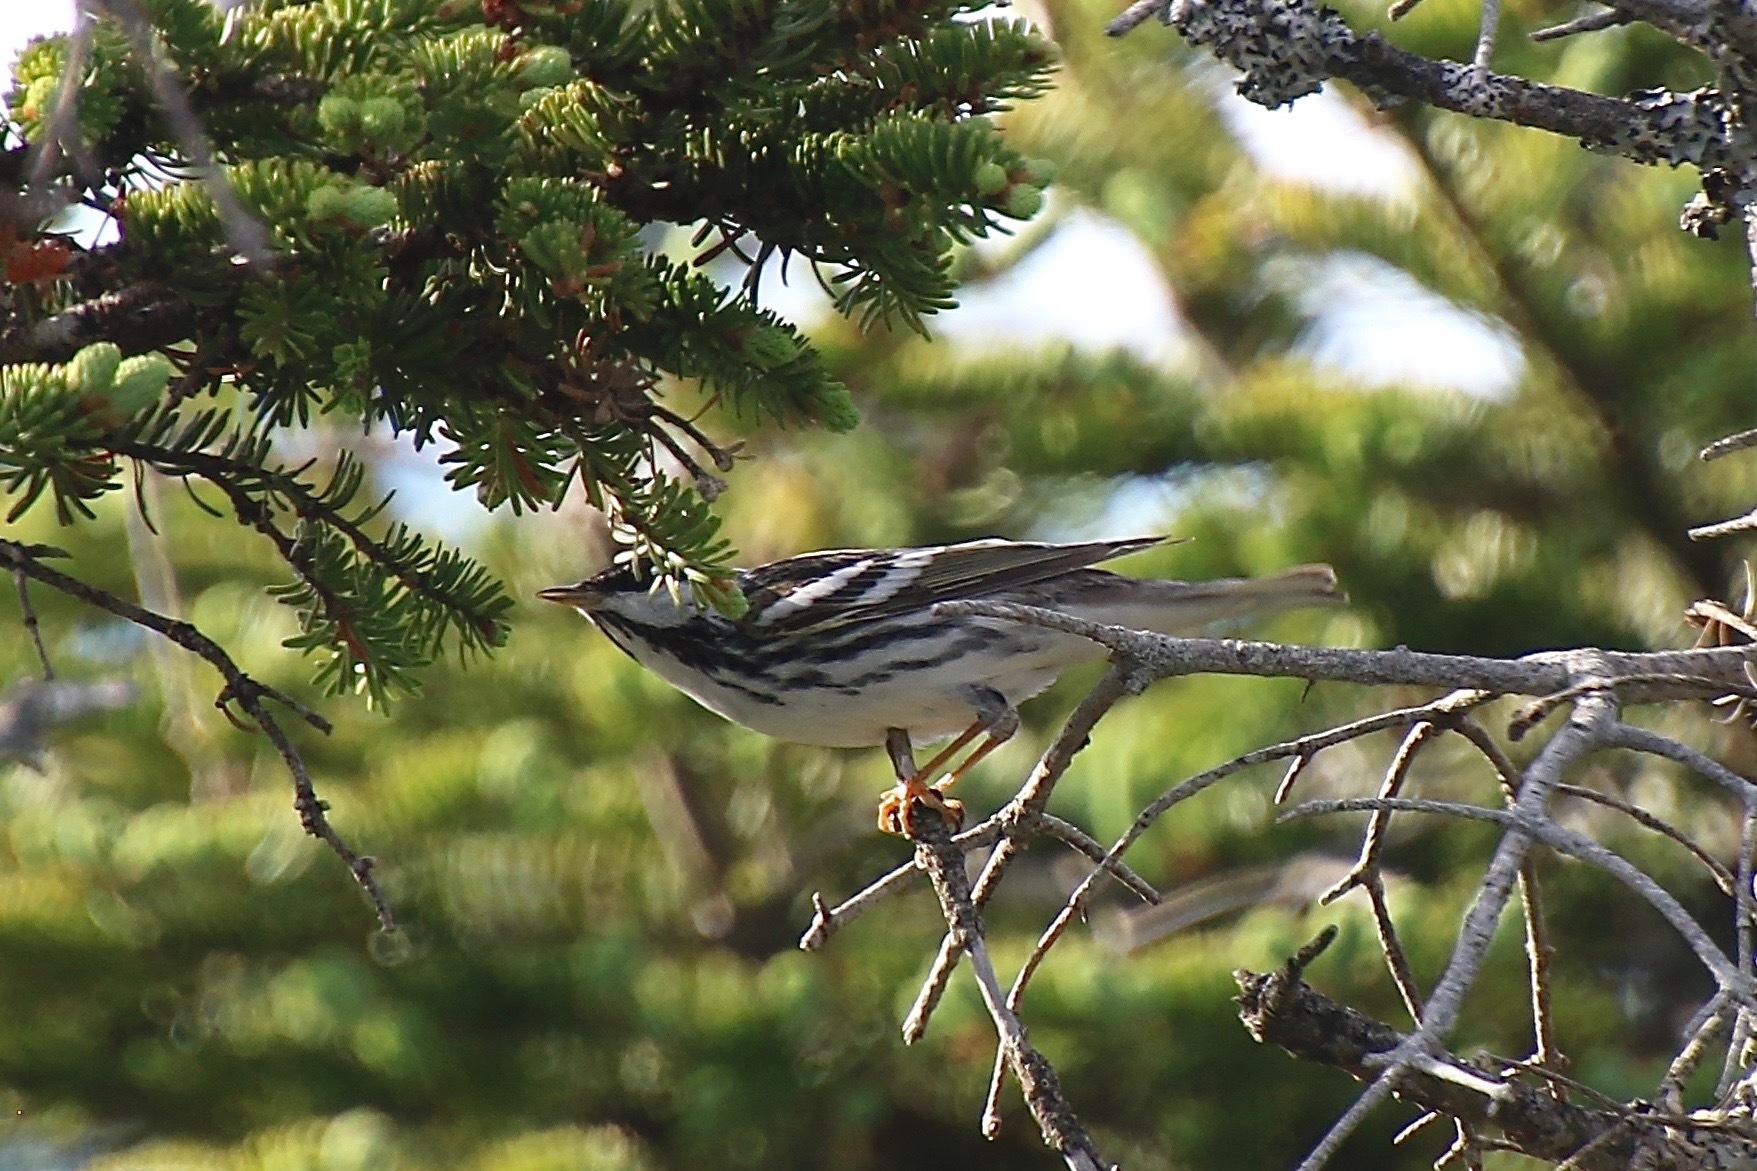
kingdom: Animalia
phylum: Chordata
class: Aves
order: Passeriformes
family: Parulidae
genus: Setophaga
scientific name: Setophaga striata
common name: Blackpoll warbler
